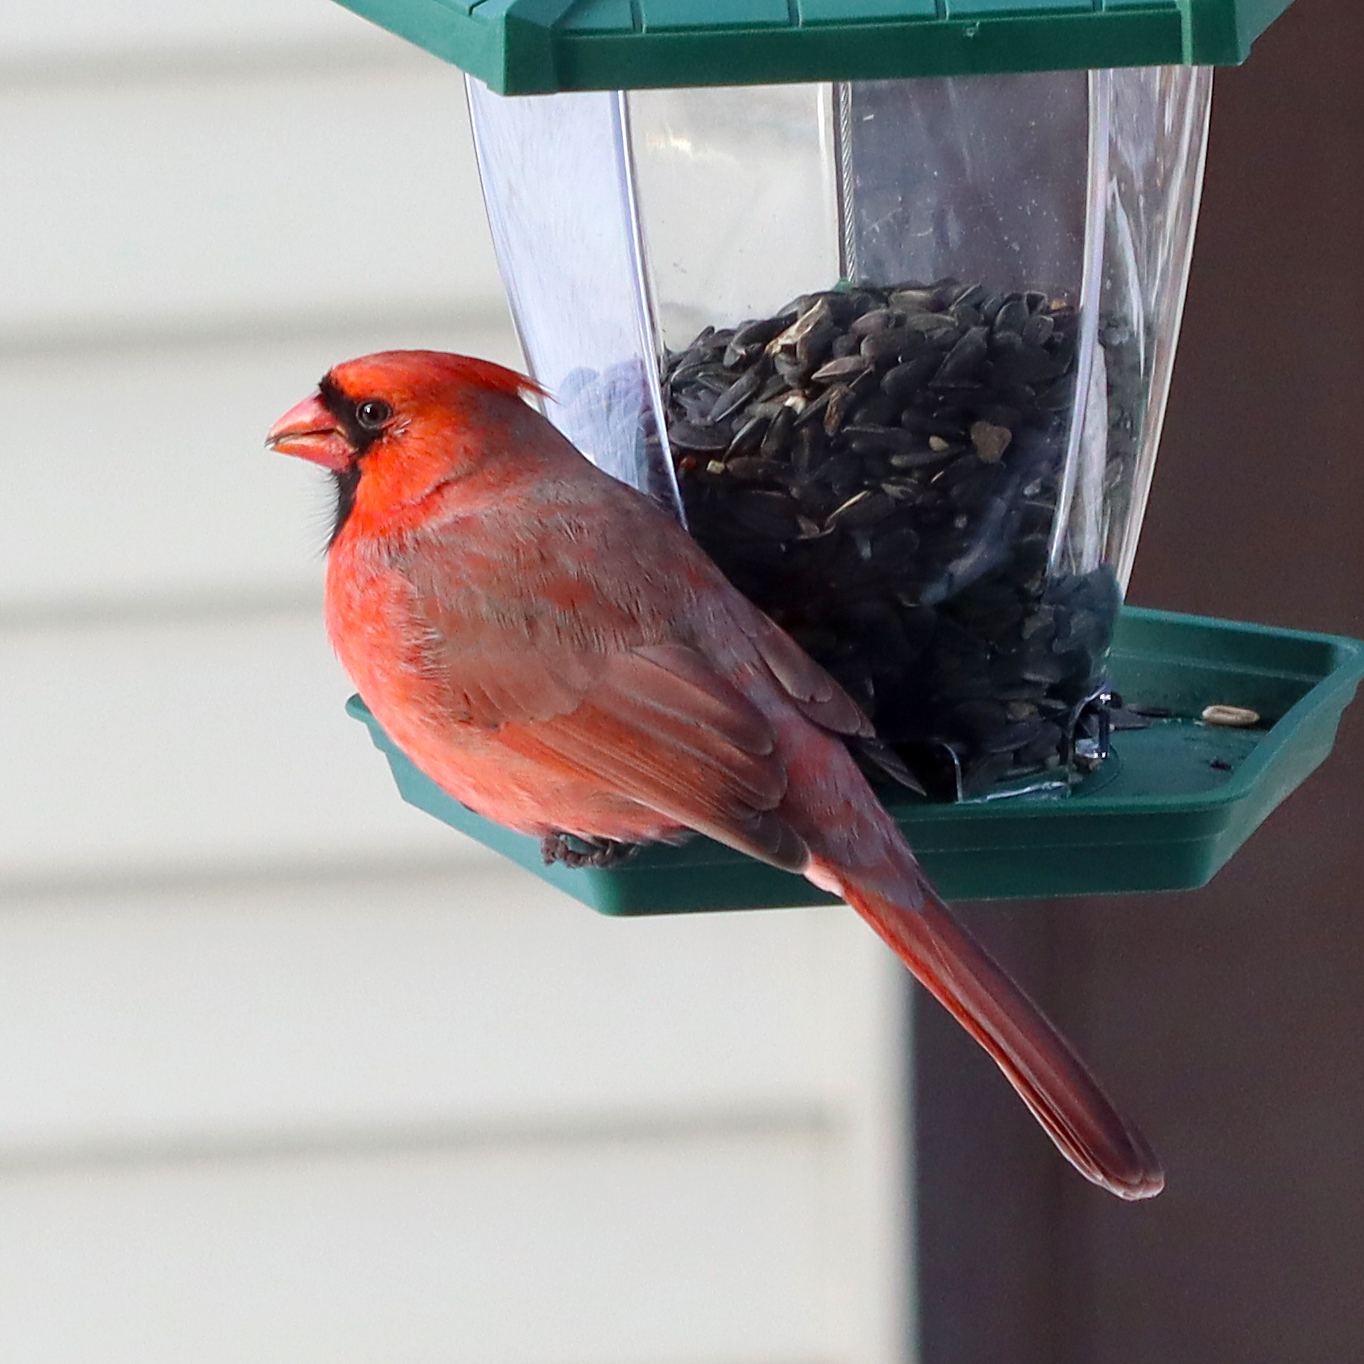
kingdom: Animalia
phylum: Chordata
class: Aves
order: Passeriformes
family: Cardinalidae
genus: Cardinalis
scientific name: Cardinalis cardinalis
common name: Northern cardinal
